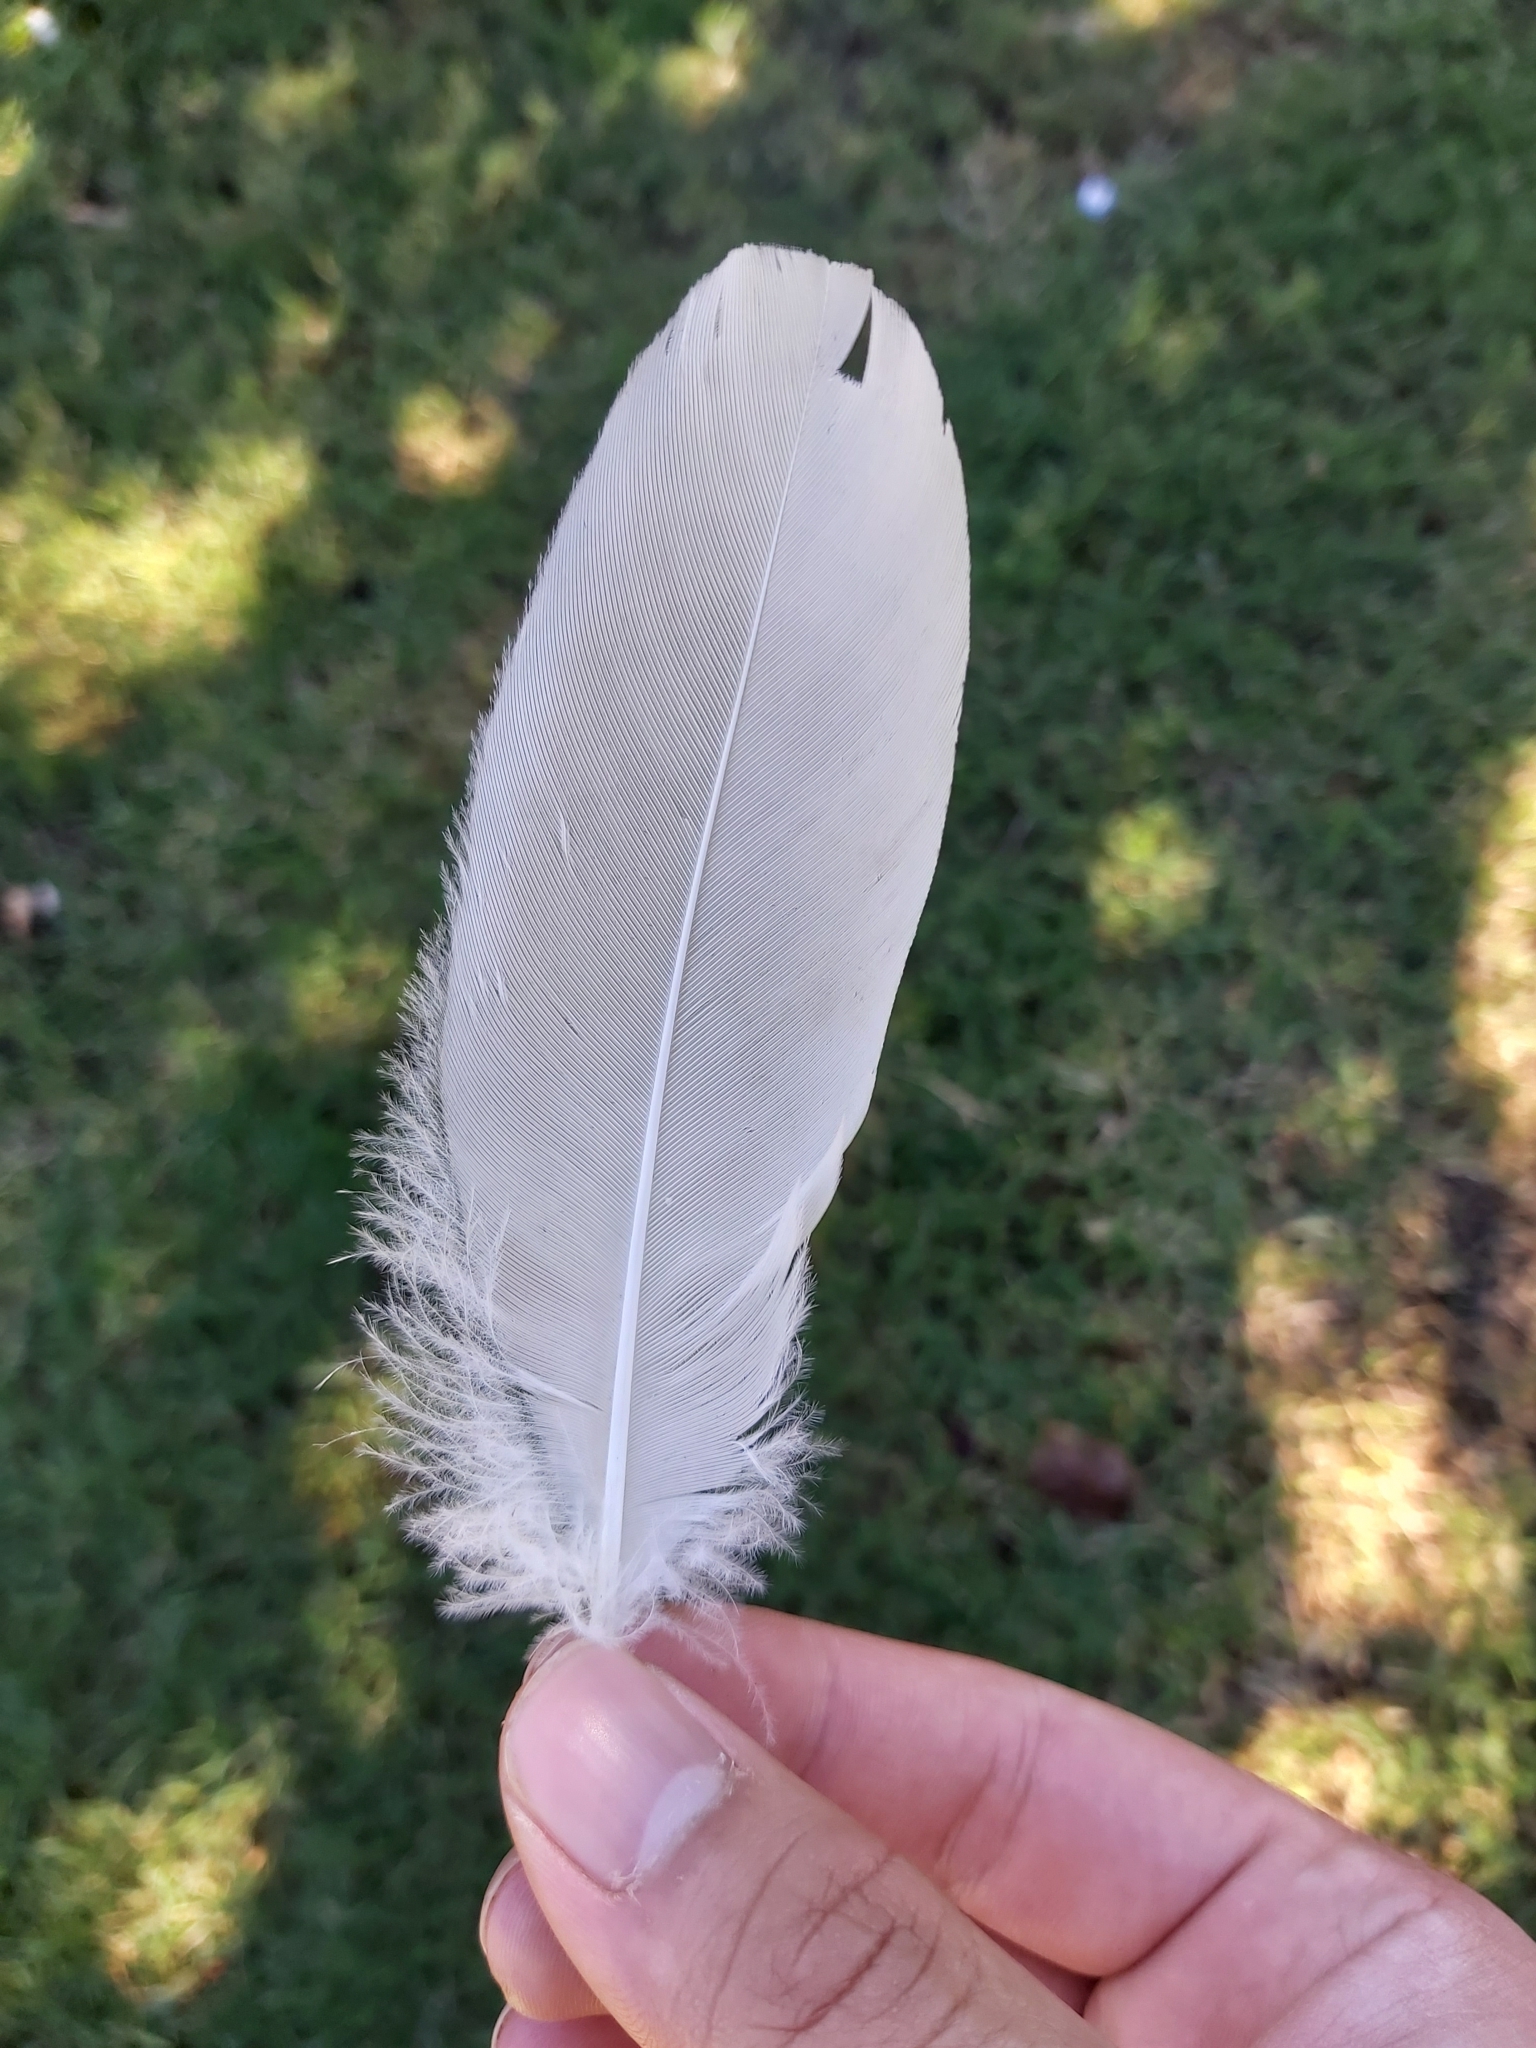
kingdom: Animalia
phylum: Chordata
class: Aves
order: Pelecaniformes
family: Threskiornithidae
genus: Threskiornis
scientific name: Threskiornis molucca
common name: Australian white ibis
